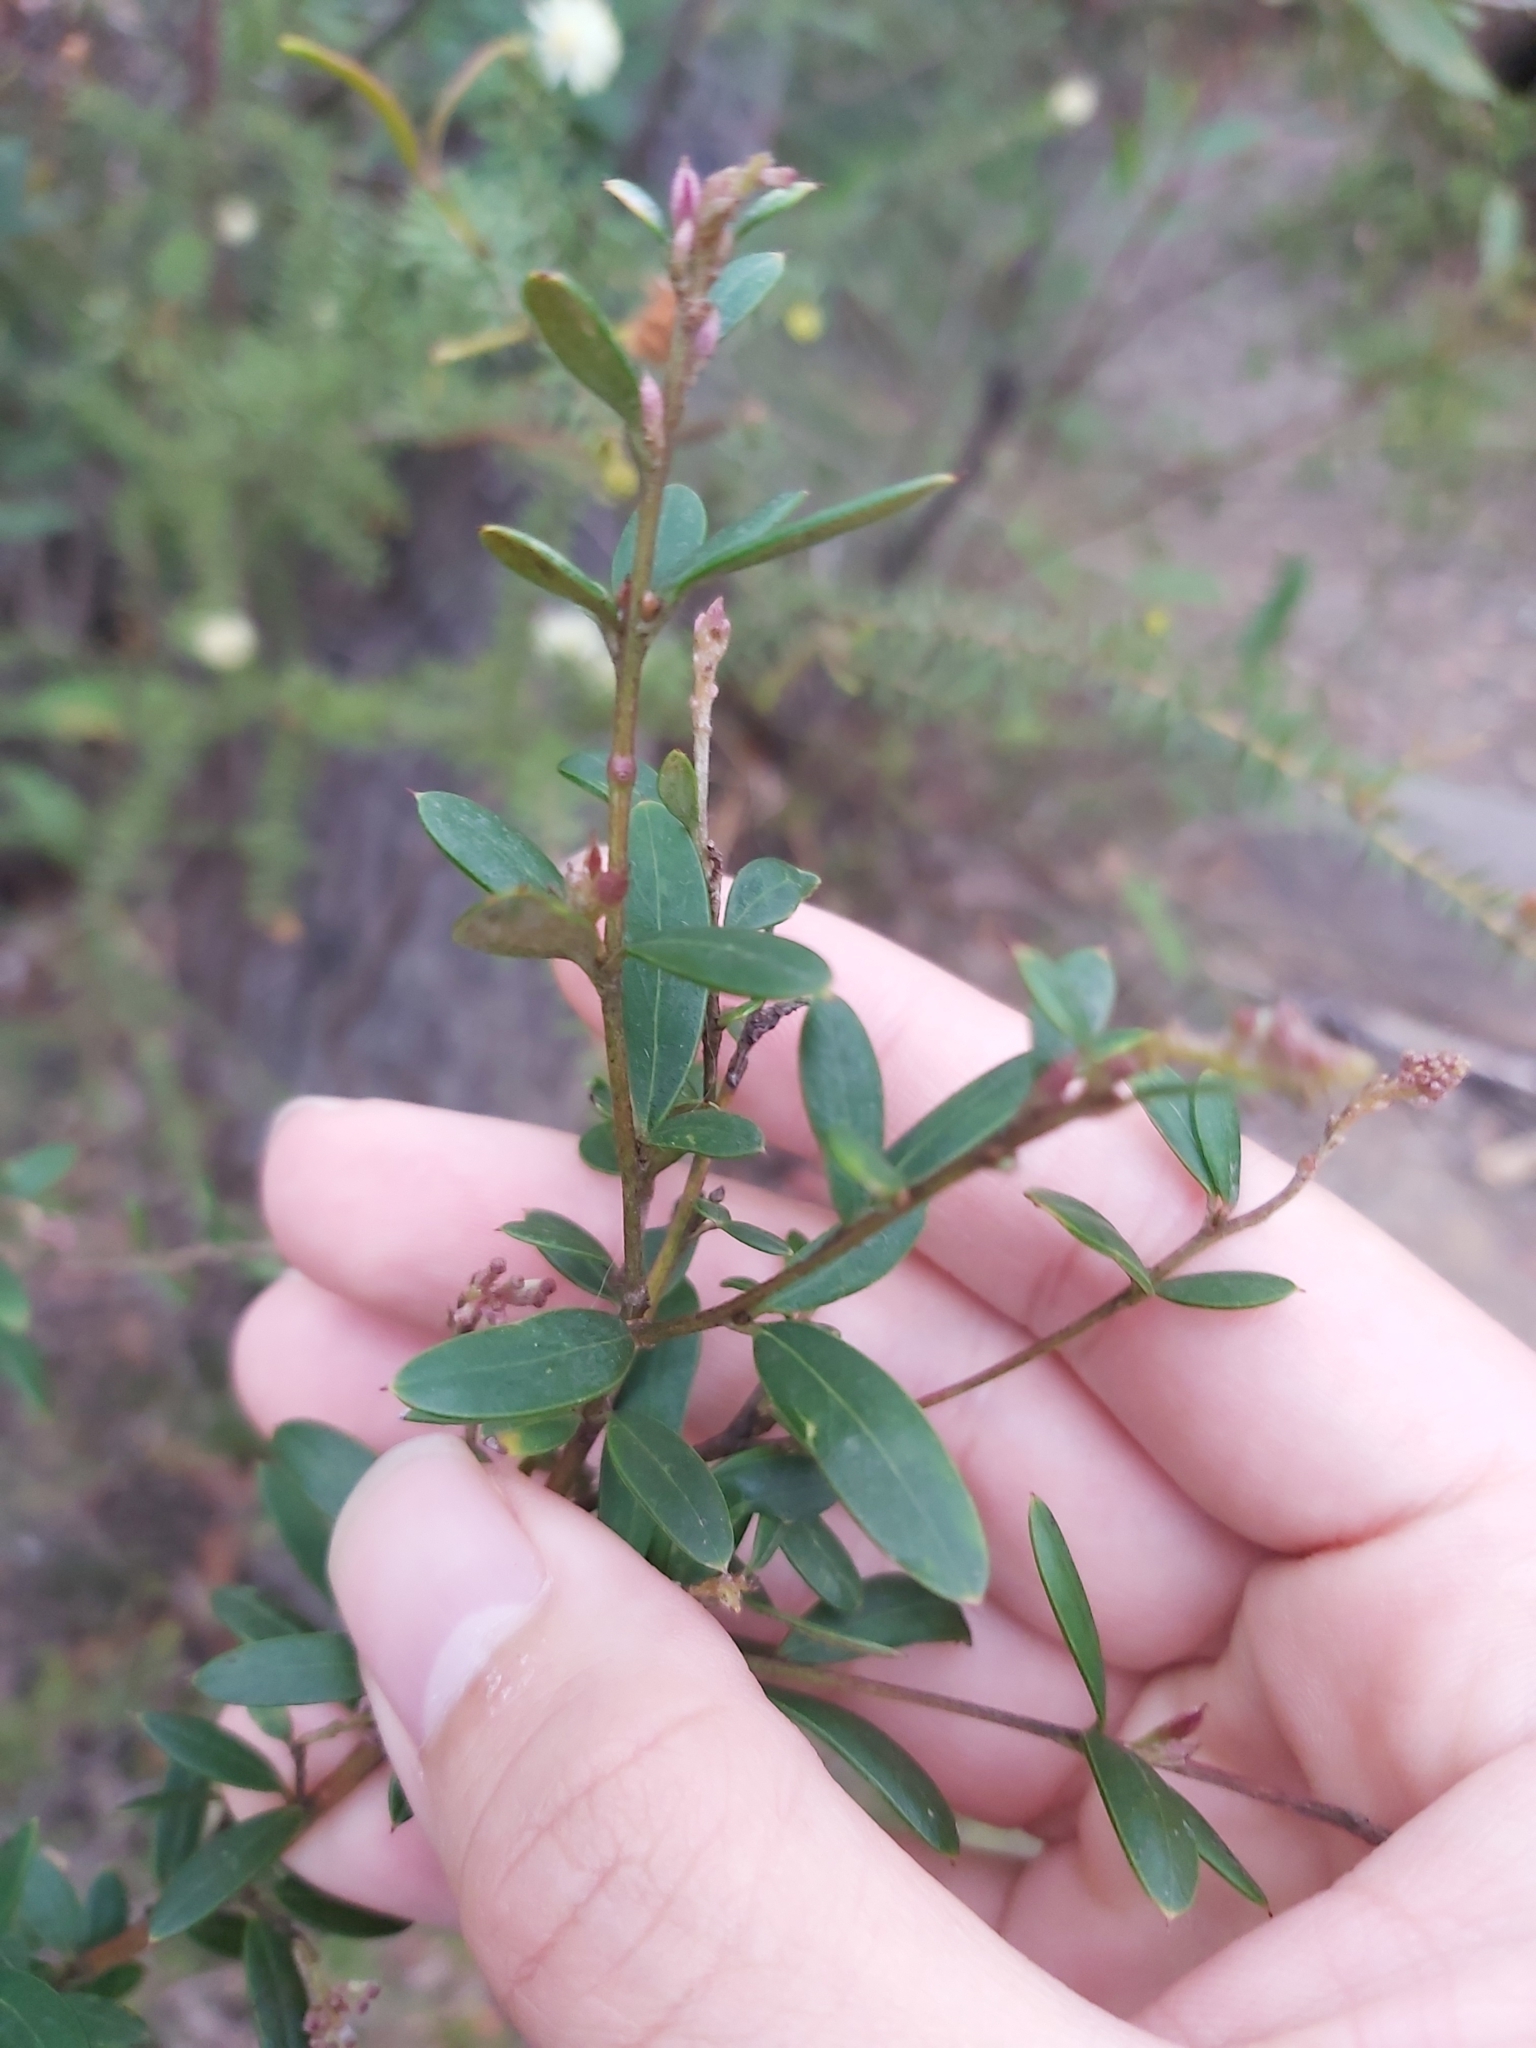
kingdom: Plantae
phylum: Tracheophyta
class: Magnoliopsida
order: Proteales
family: Proteaceae
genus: Grevillea
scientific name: Grevillea sericea
